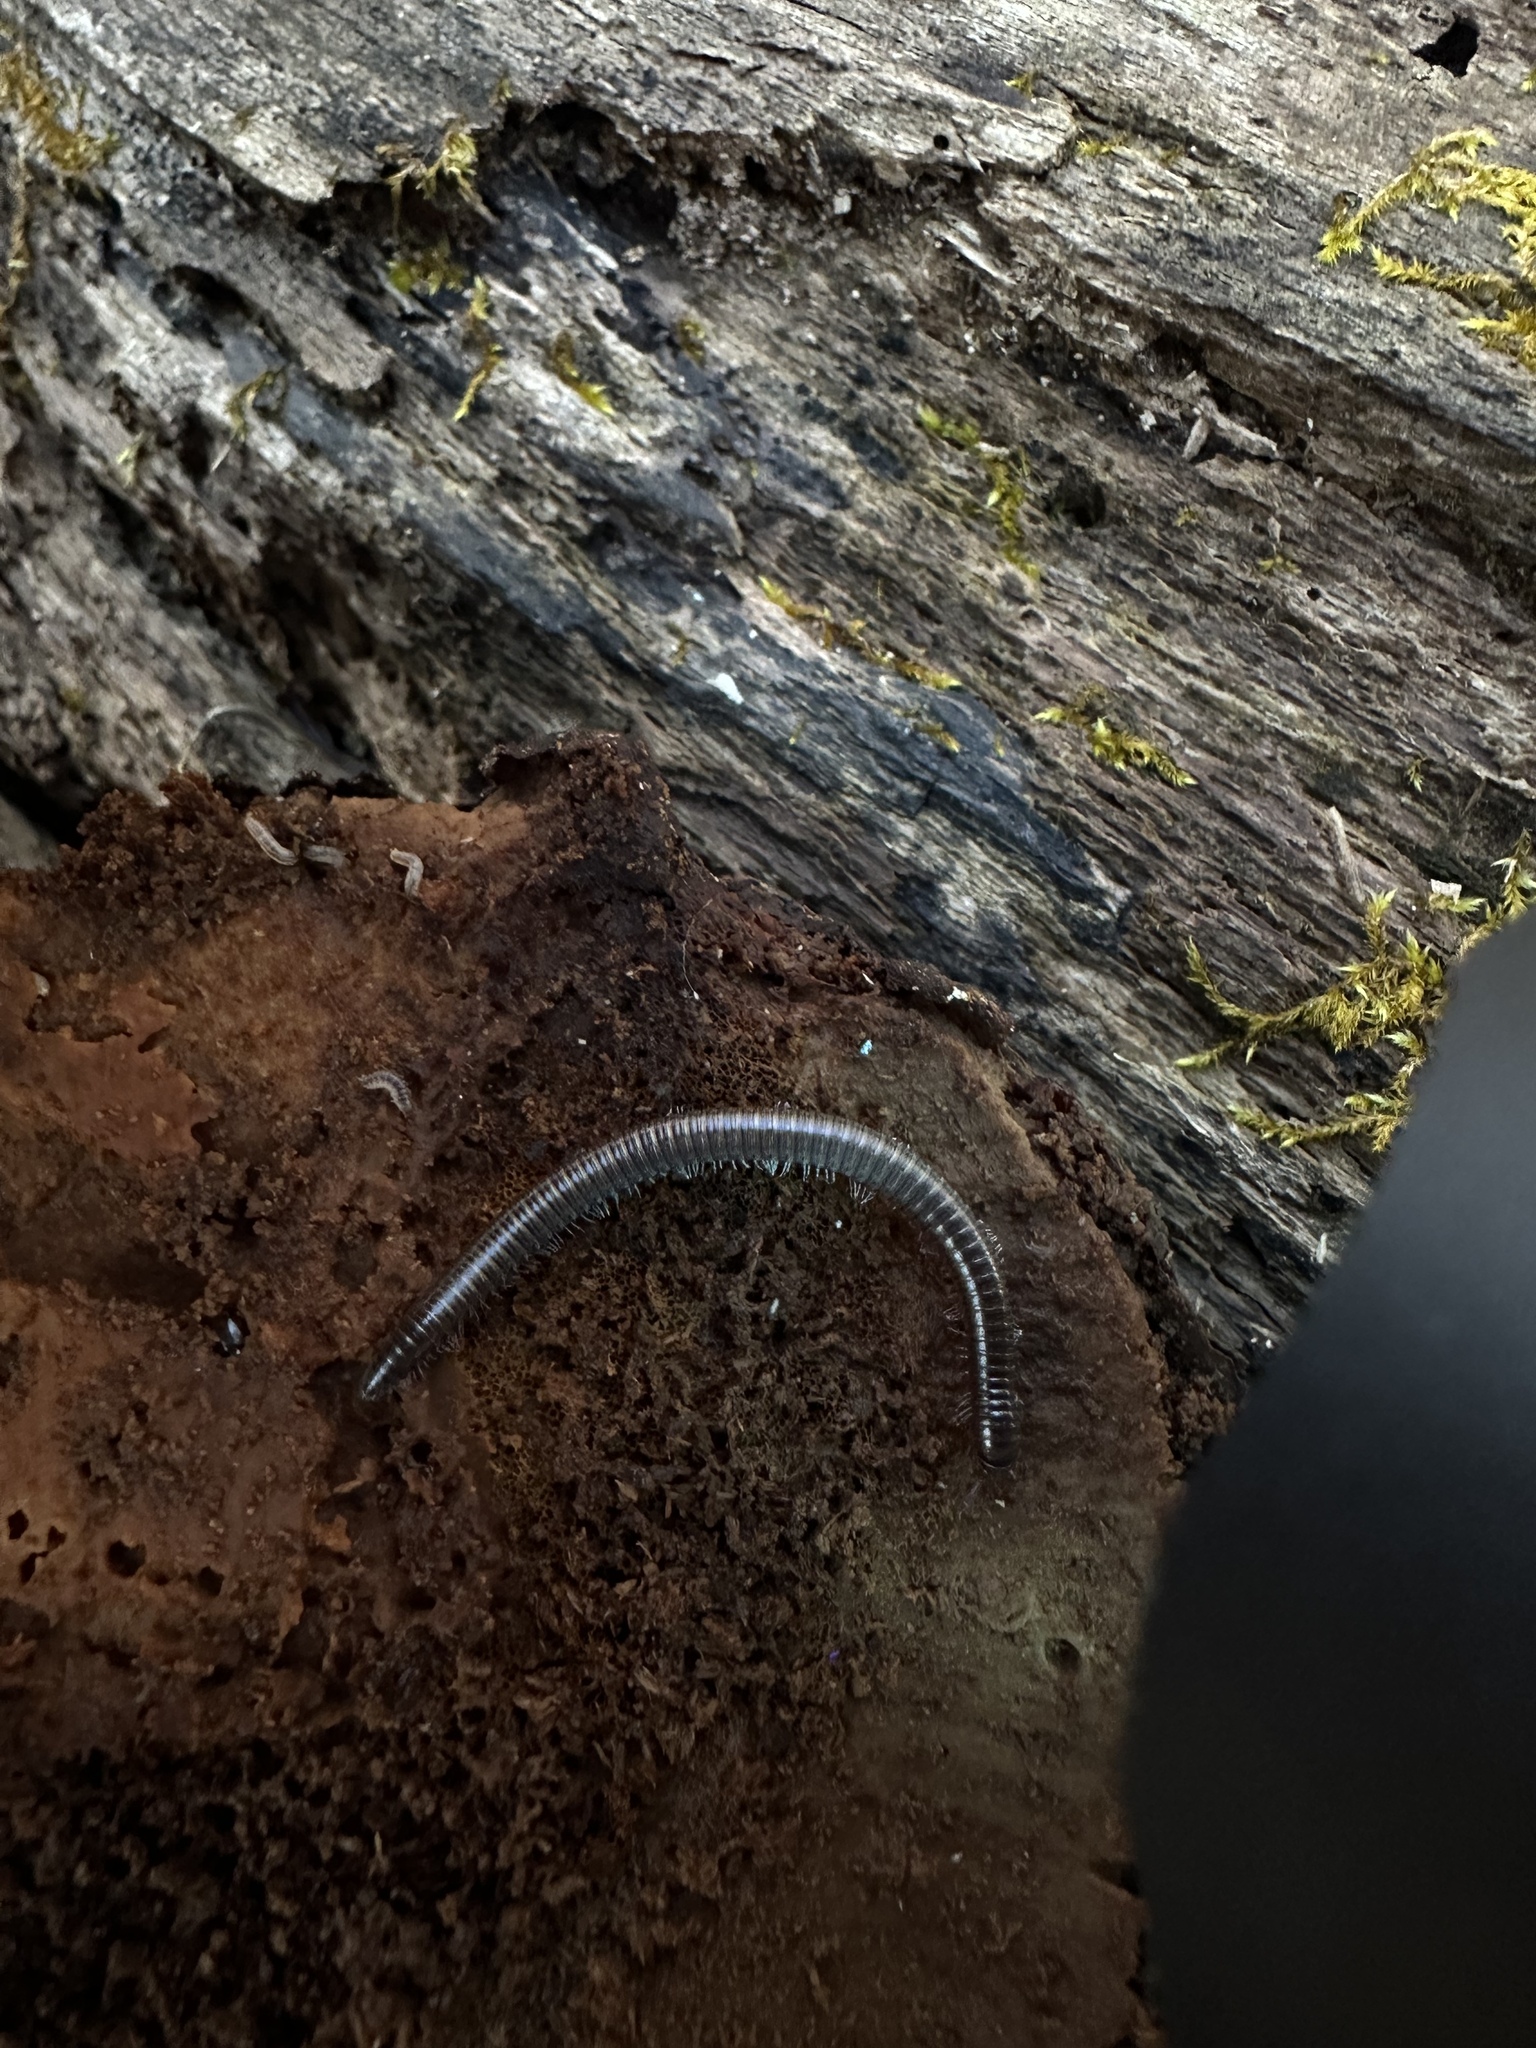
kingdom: Animalia
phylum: Arthropoda
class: Diplopoda
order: Julida
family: Parajulidae
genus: Ptyoiulus
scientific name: Ptyoiulus impressus
